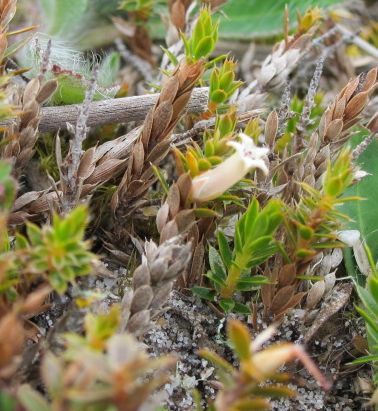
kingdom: Plantae
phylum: Tracheophyta
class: Magnoliopsida
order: Ericales
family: Ericaceae
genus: Styphelia
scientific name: Styphelia nesophila
